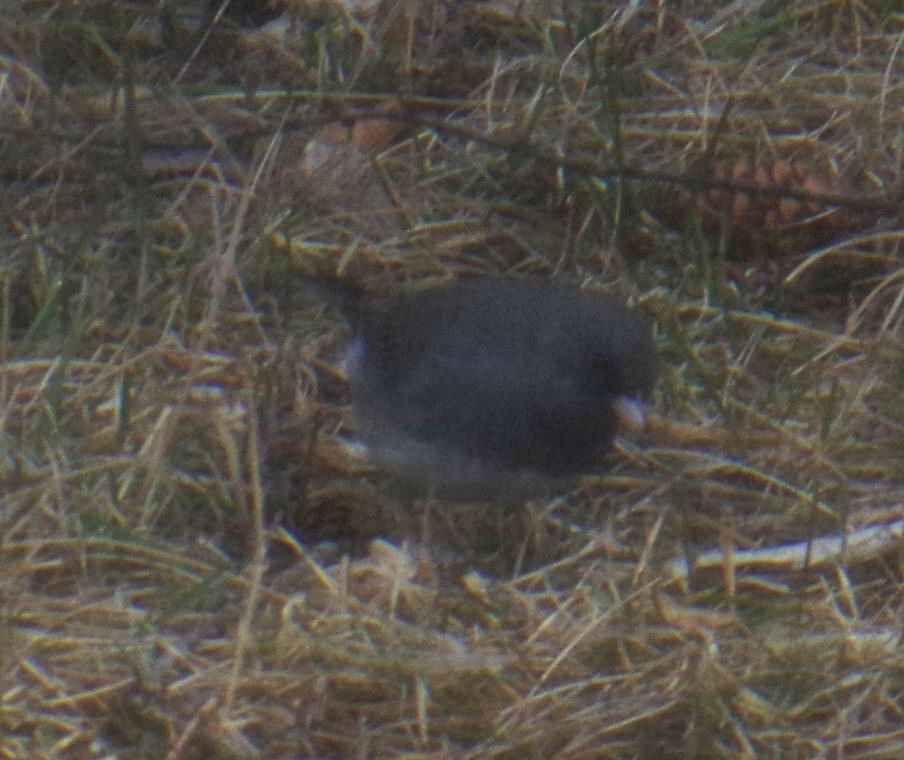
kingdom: Animalia
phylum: Chordata
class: Aves
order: Passeriformes
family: Passerellidae
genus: Junco
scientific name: Junco hyemalis
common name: Dark-eyed junco
